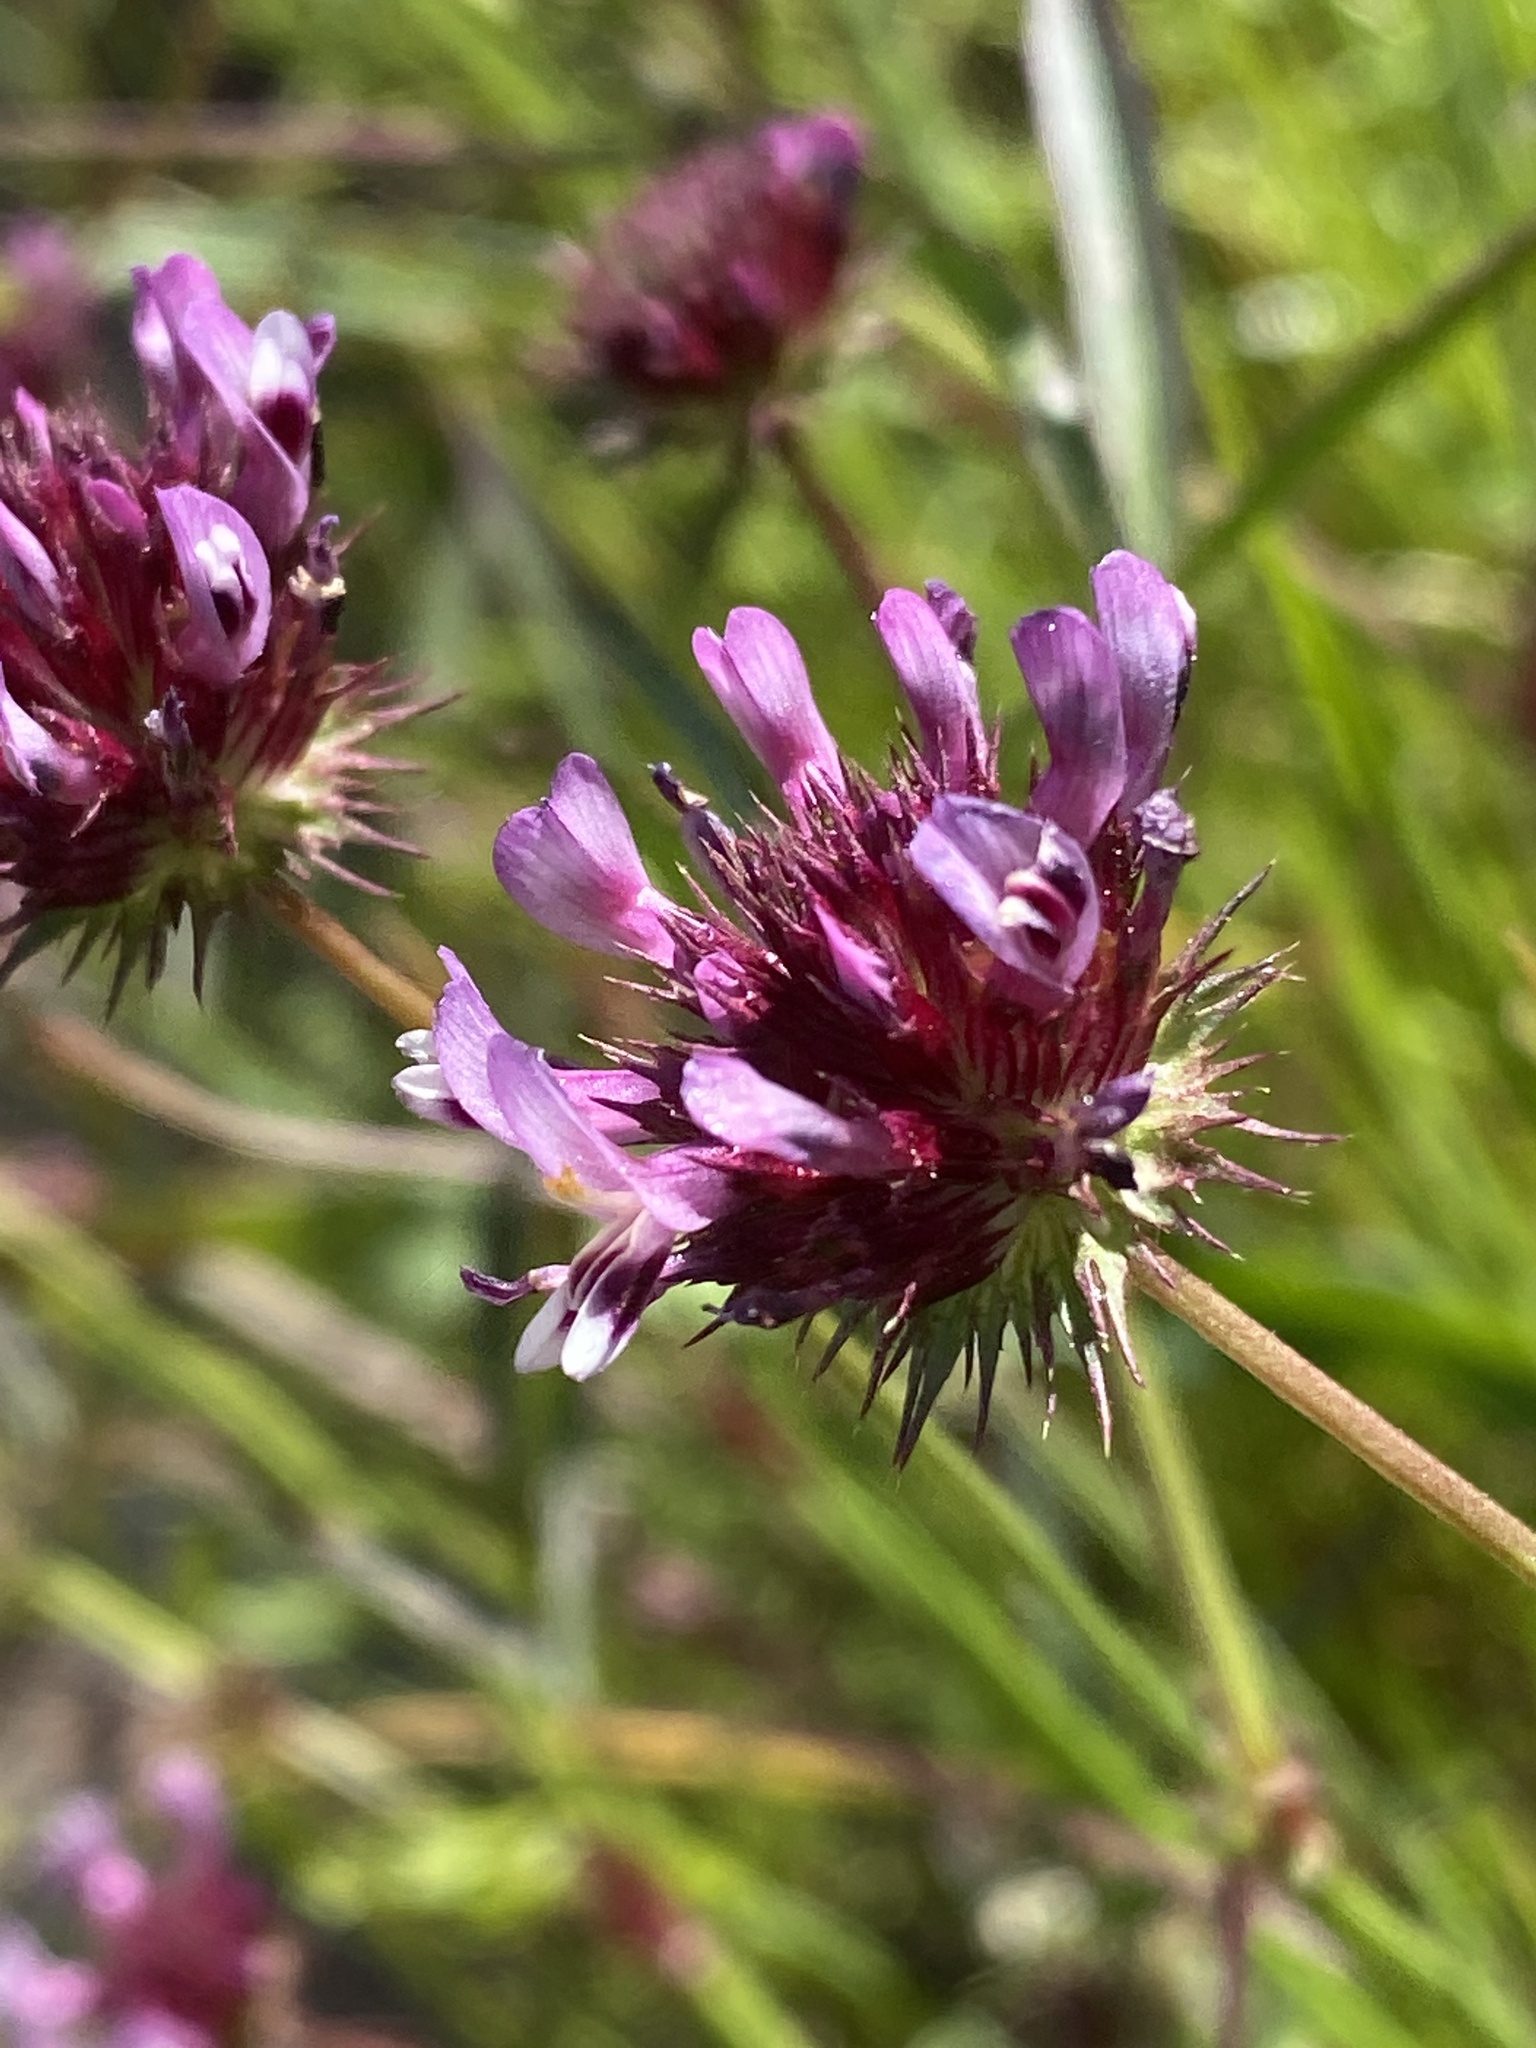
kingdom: Plantae
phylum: Tracheophyta
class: Magnoliopsida
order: Fabales
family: Fabaceae
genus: Trifolium
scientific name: Trifolium willdenovii
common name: Tomcat clover
